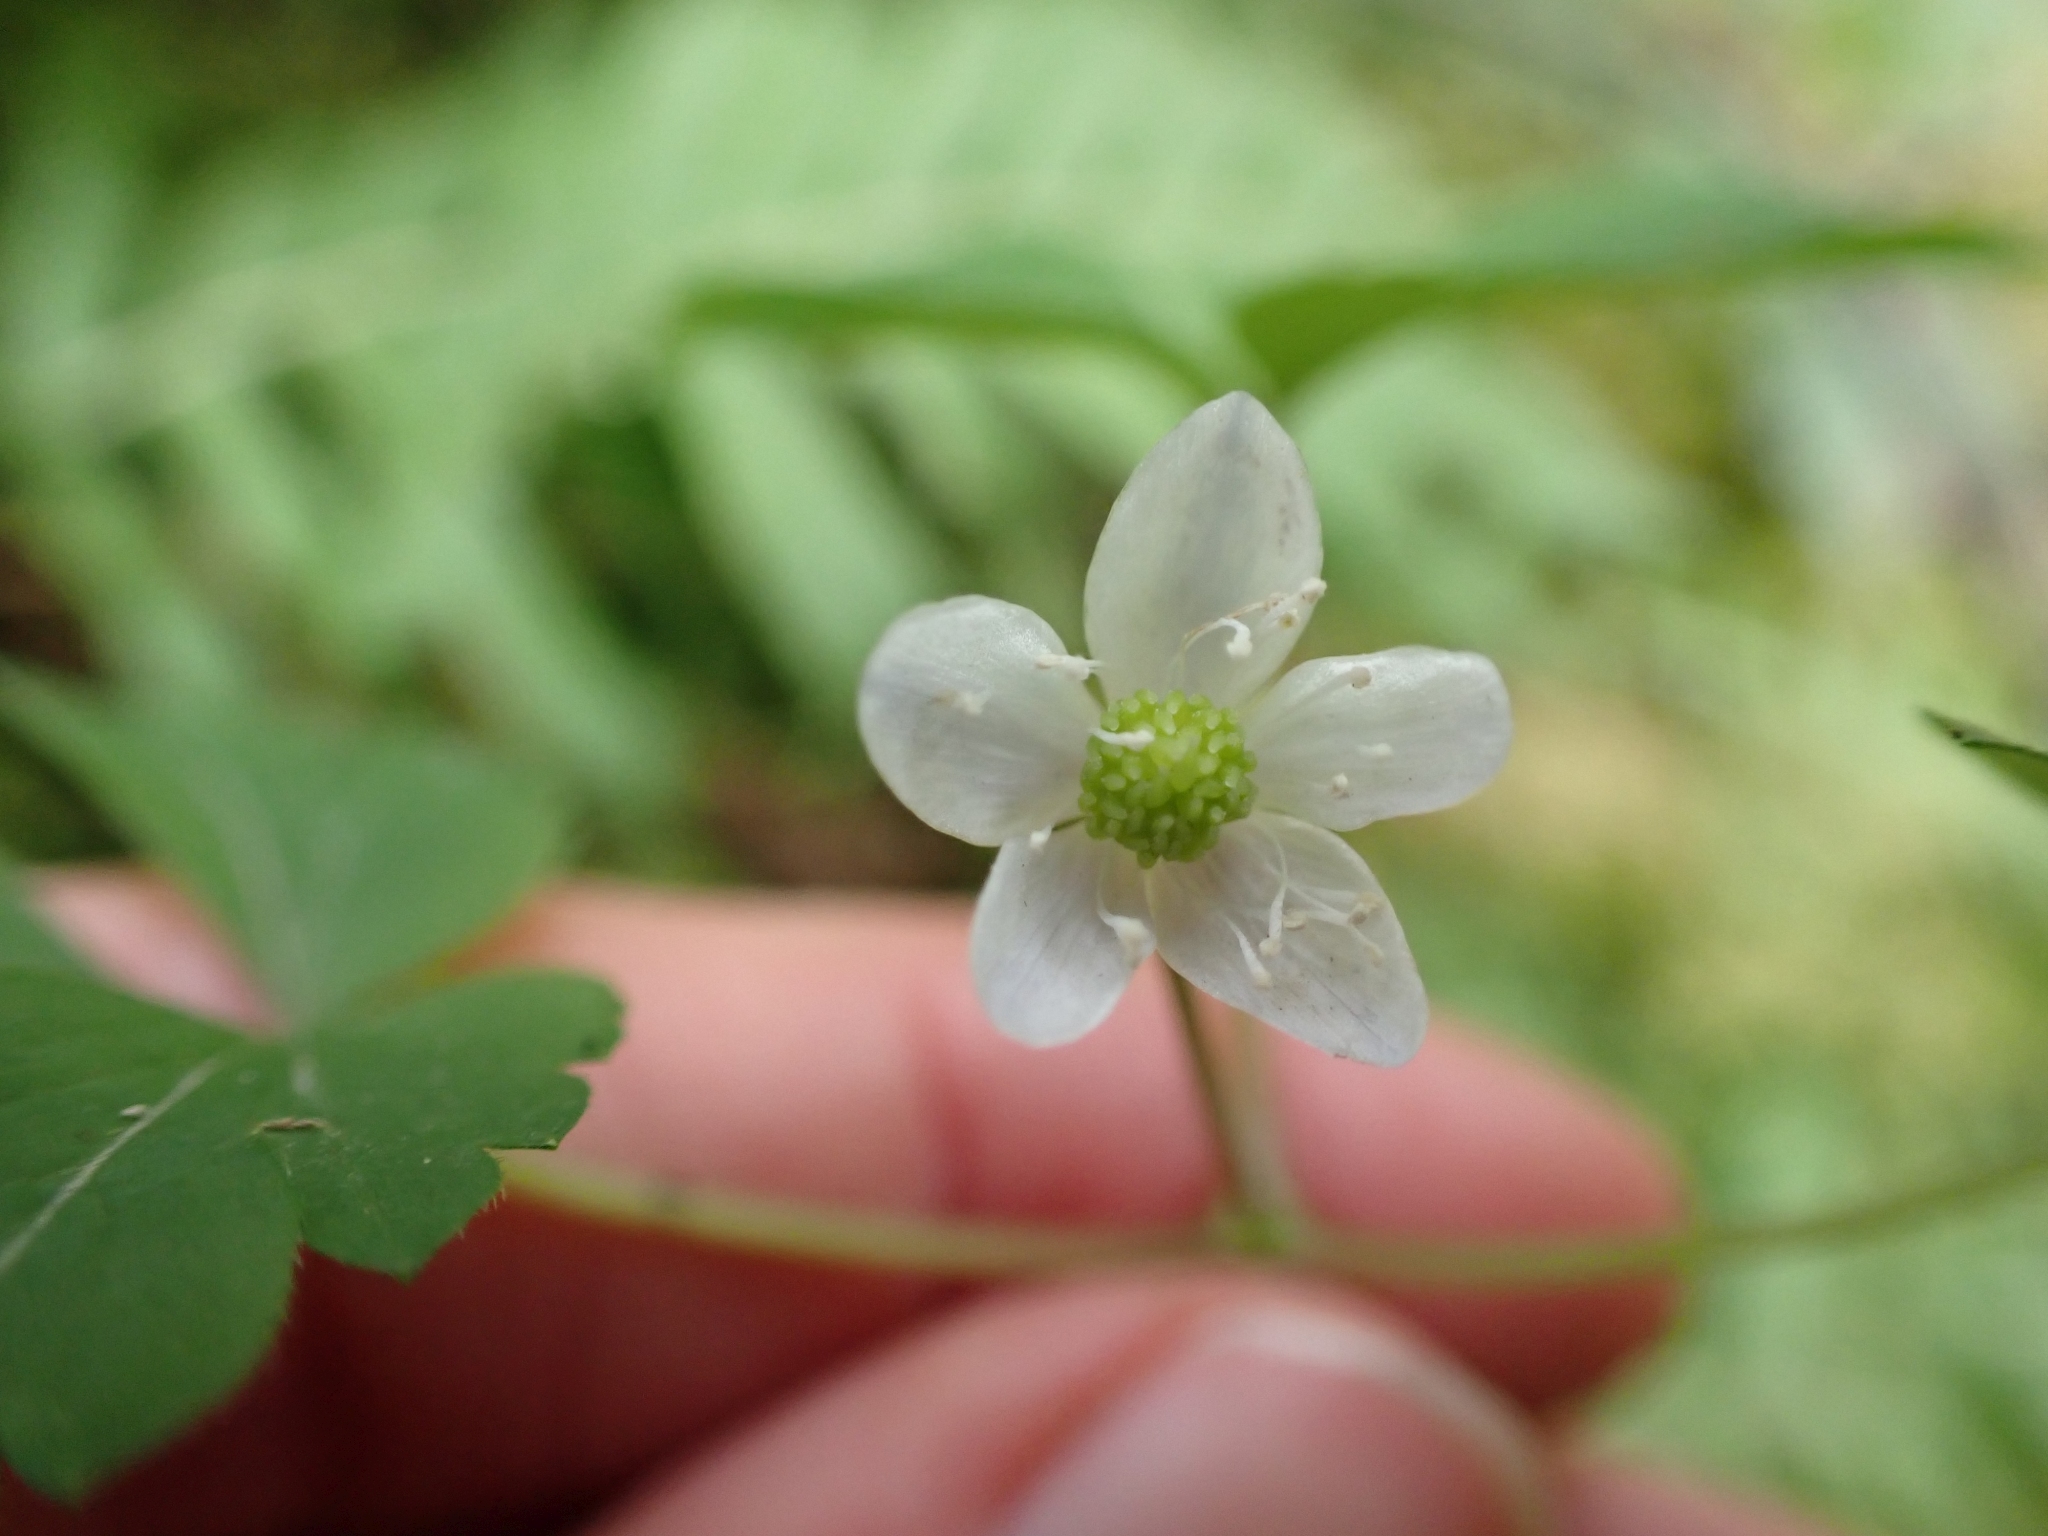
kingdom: Plantae
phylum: Tracheophyta
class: Magnoliopsida
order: Ranunculales
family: Ranunculaceae
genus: Anemone
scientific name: Anemone
